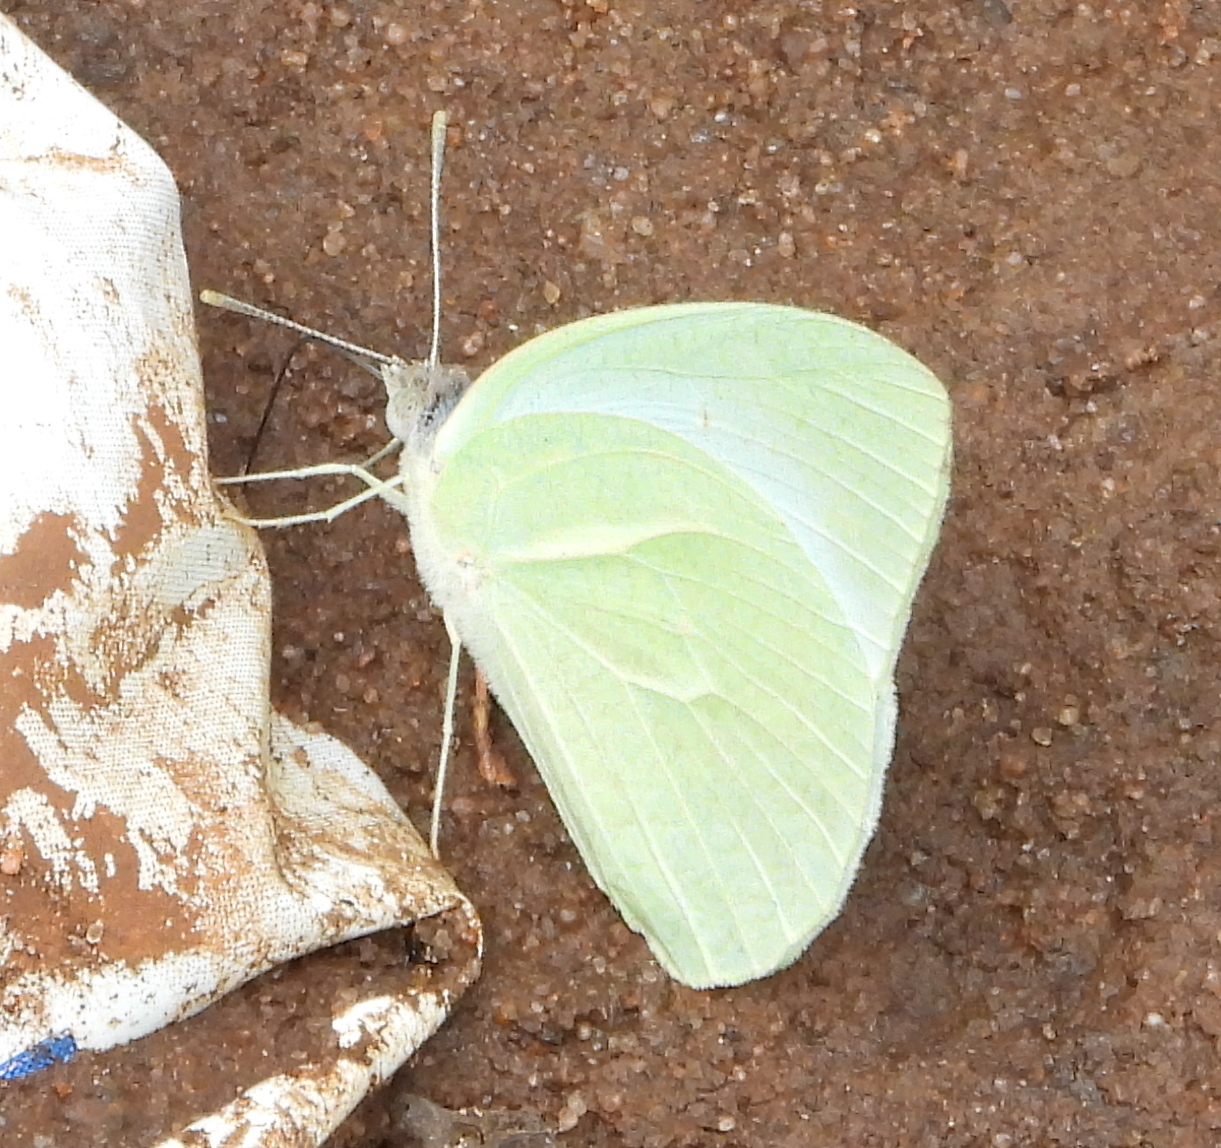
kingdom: Animalia
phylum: Arthropoda
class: Insecta
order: Lepidoptera
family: Pieridae
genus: Catopsilia
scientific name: Catopsilia florella
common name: African migrant
